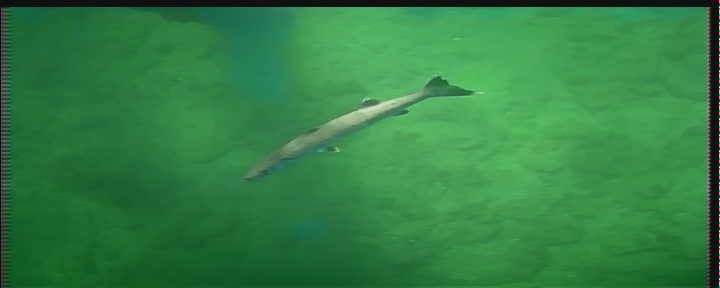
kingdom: Animalia
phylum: Chordata
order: Perciformes
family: Sphyraenidae
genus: Sphyraena
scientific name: Sphyraena barracuda
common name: Great barracuda
